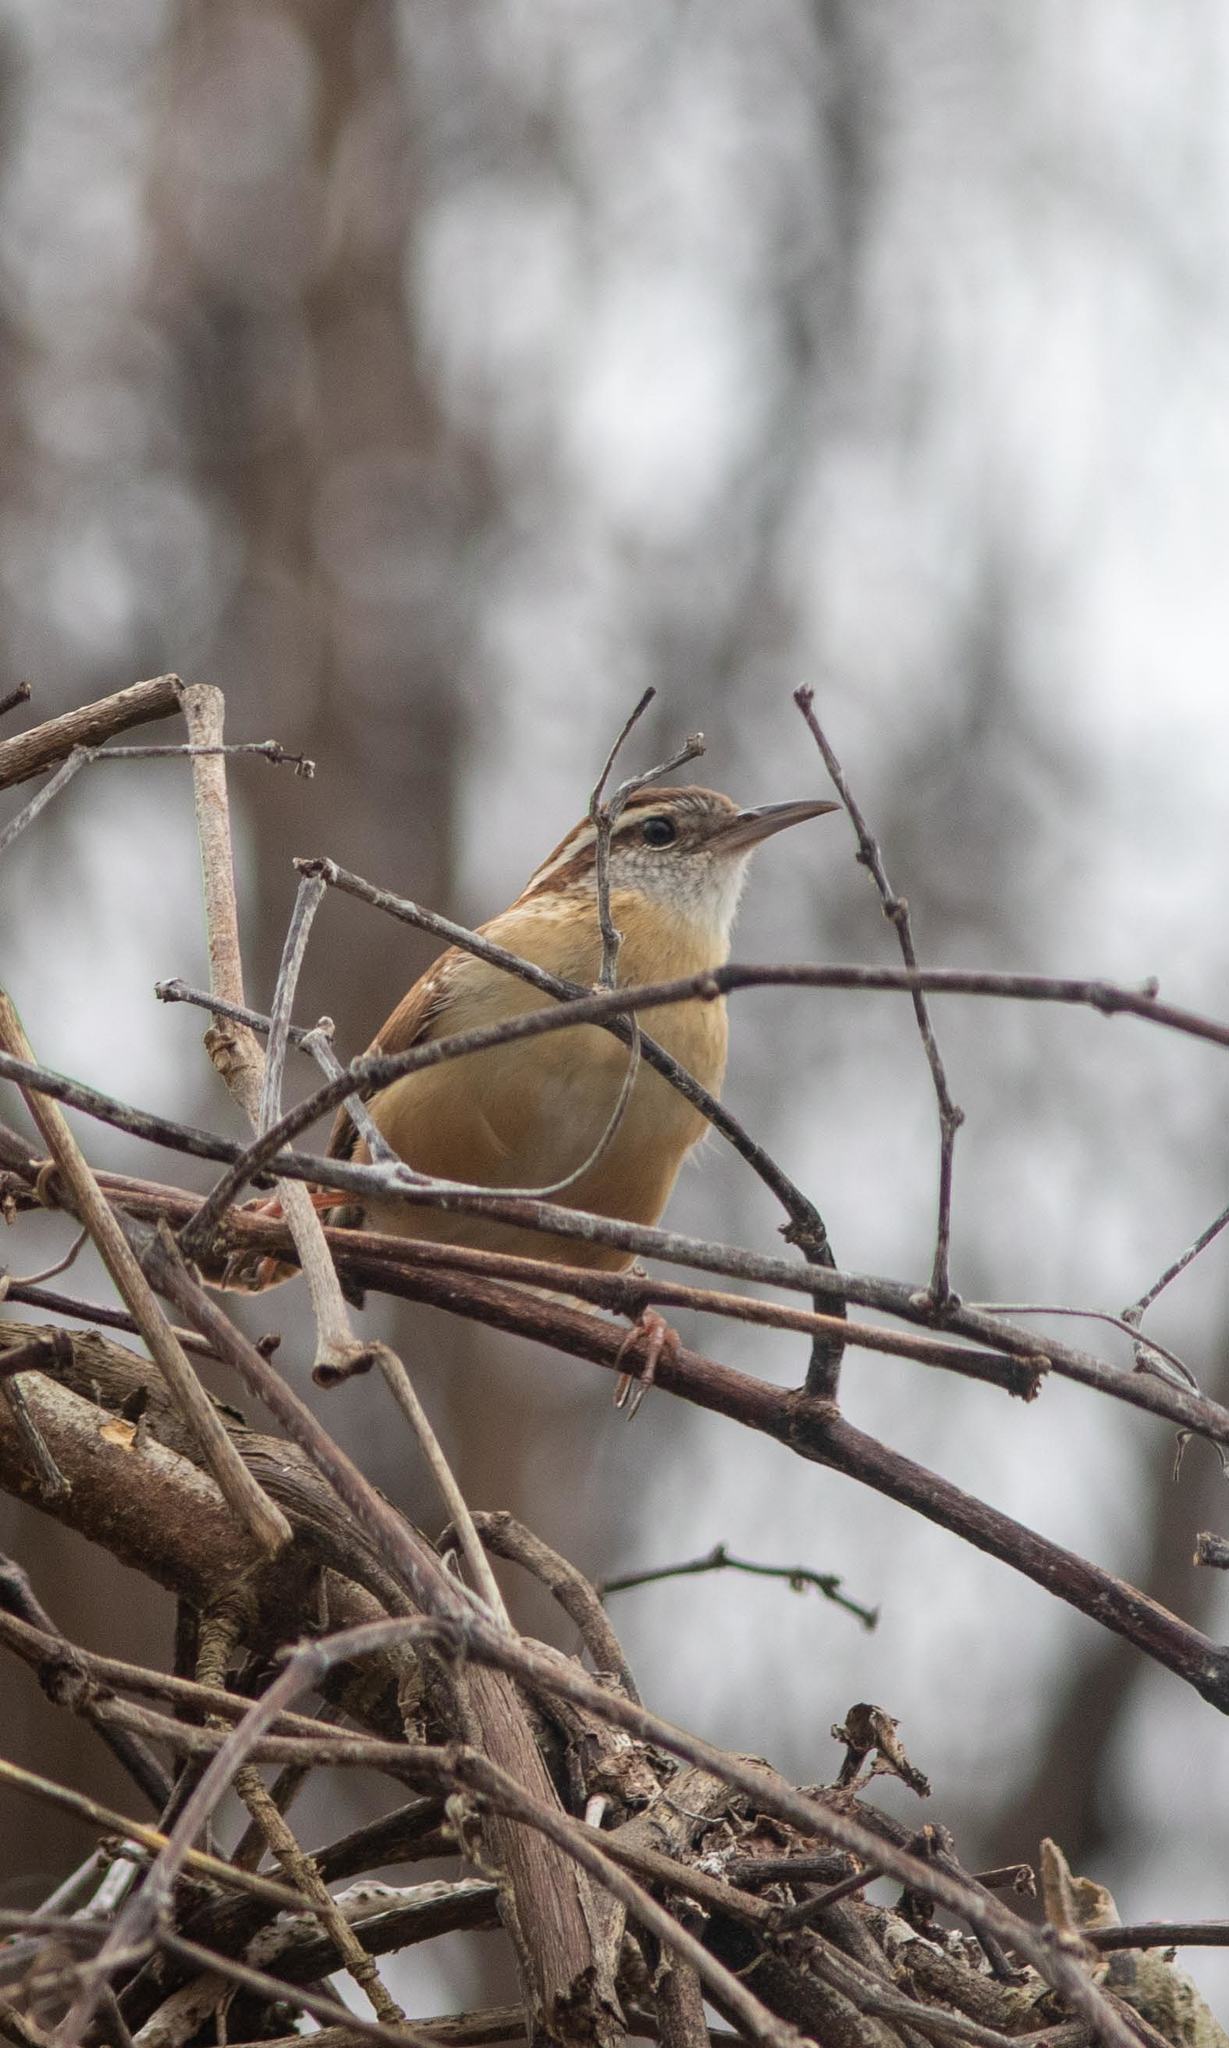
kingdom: Animalia
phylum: Chordata
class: Aves
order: Passeriformes
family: Troglodytidae
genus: Thryothorus
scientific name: Thryothorus ludovicianus
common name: Carolina wren
